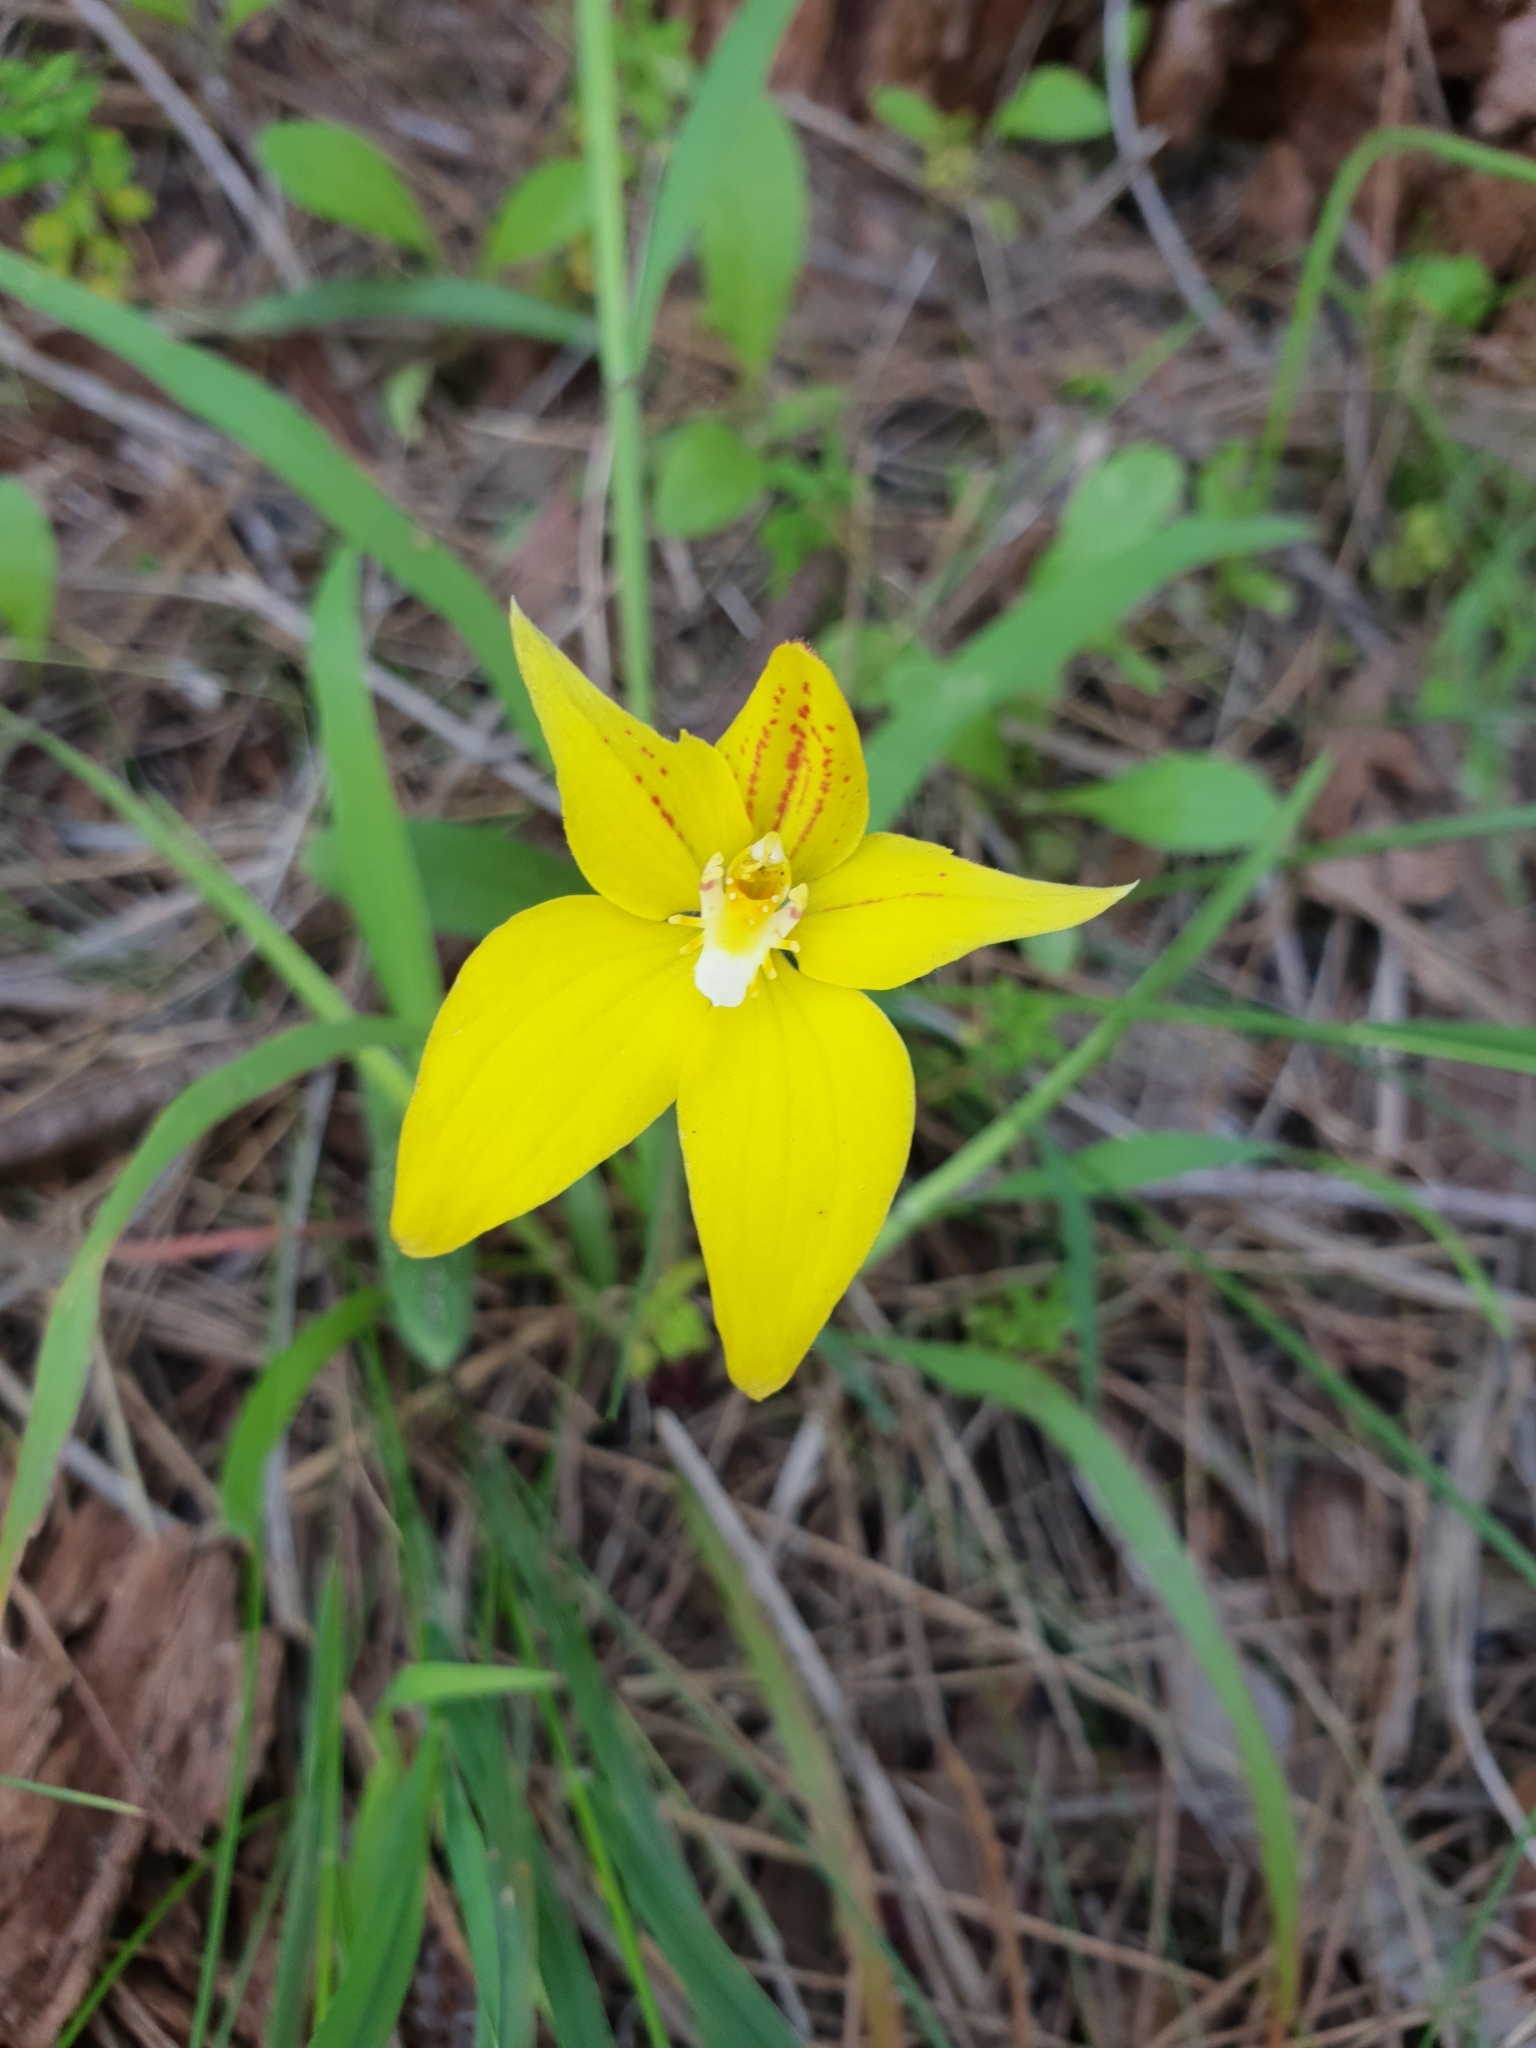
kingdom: Plantae
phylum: Tracheophyta
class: Liliopsida
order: Asparagales
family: Orchidaceae
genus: Caladenia
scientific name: Caladenia flava
